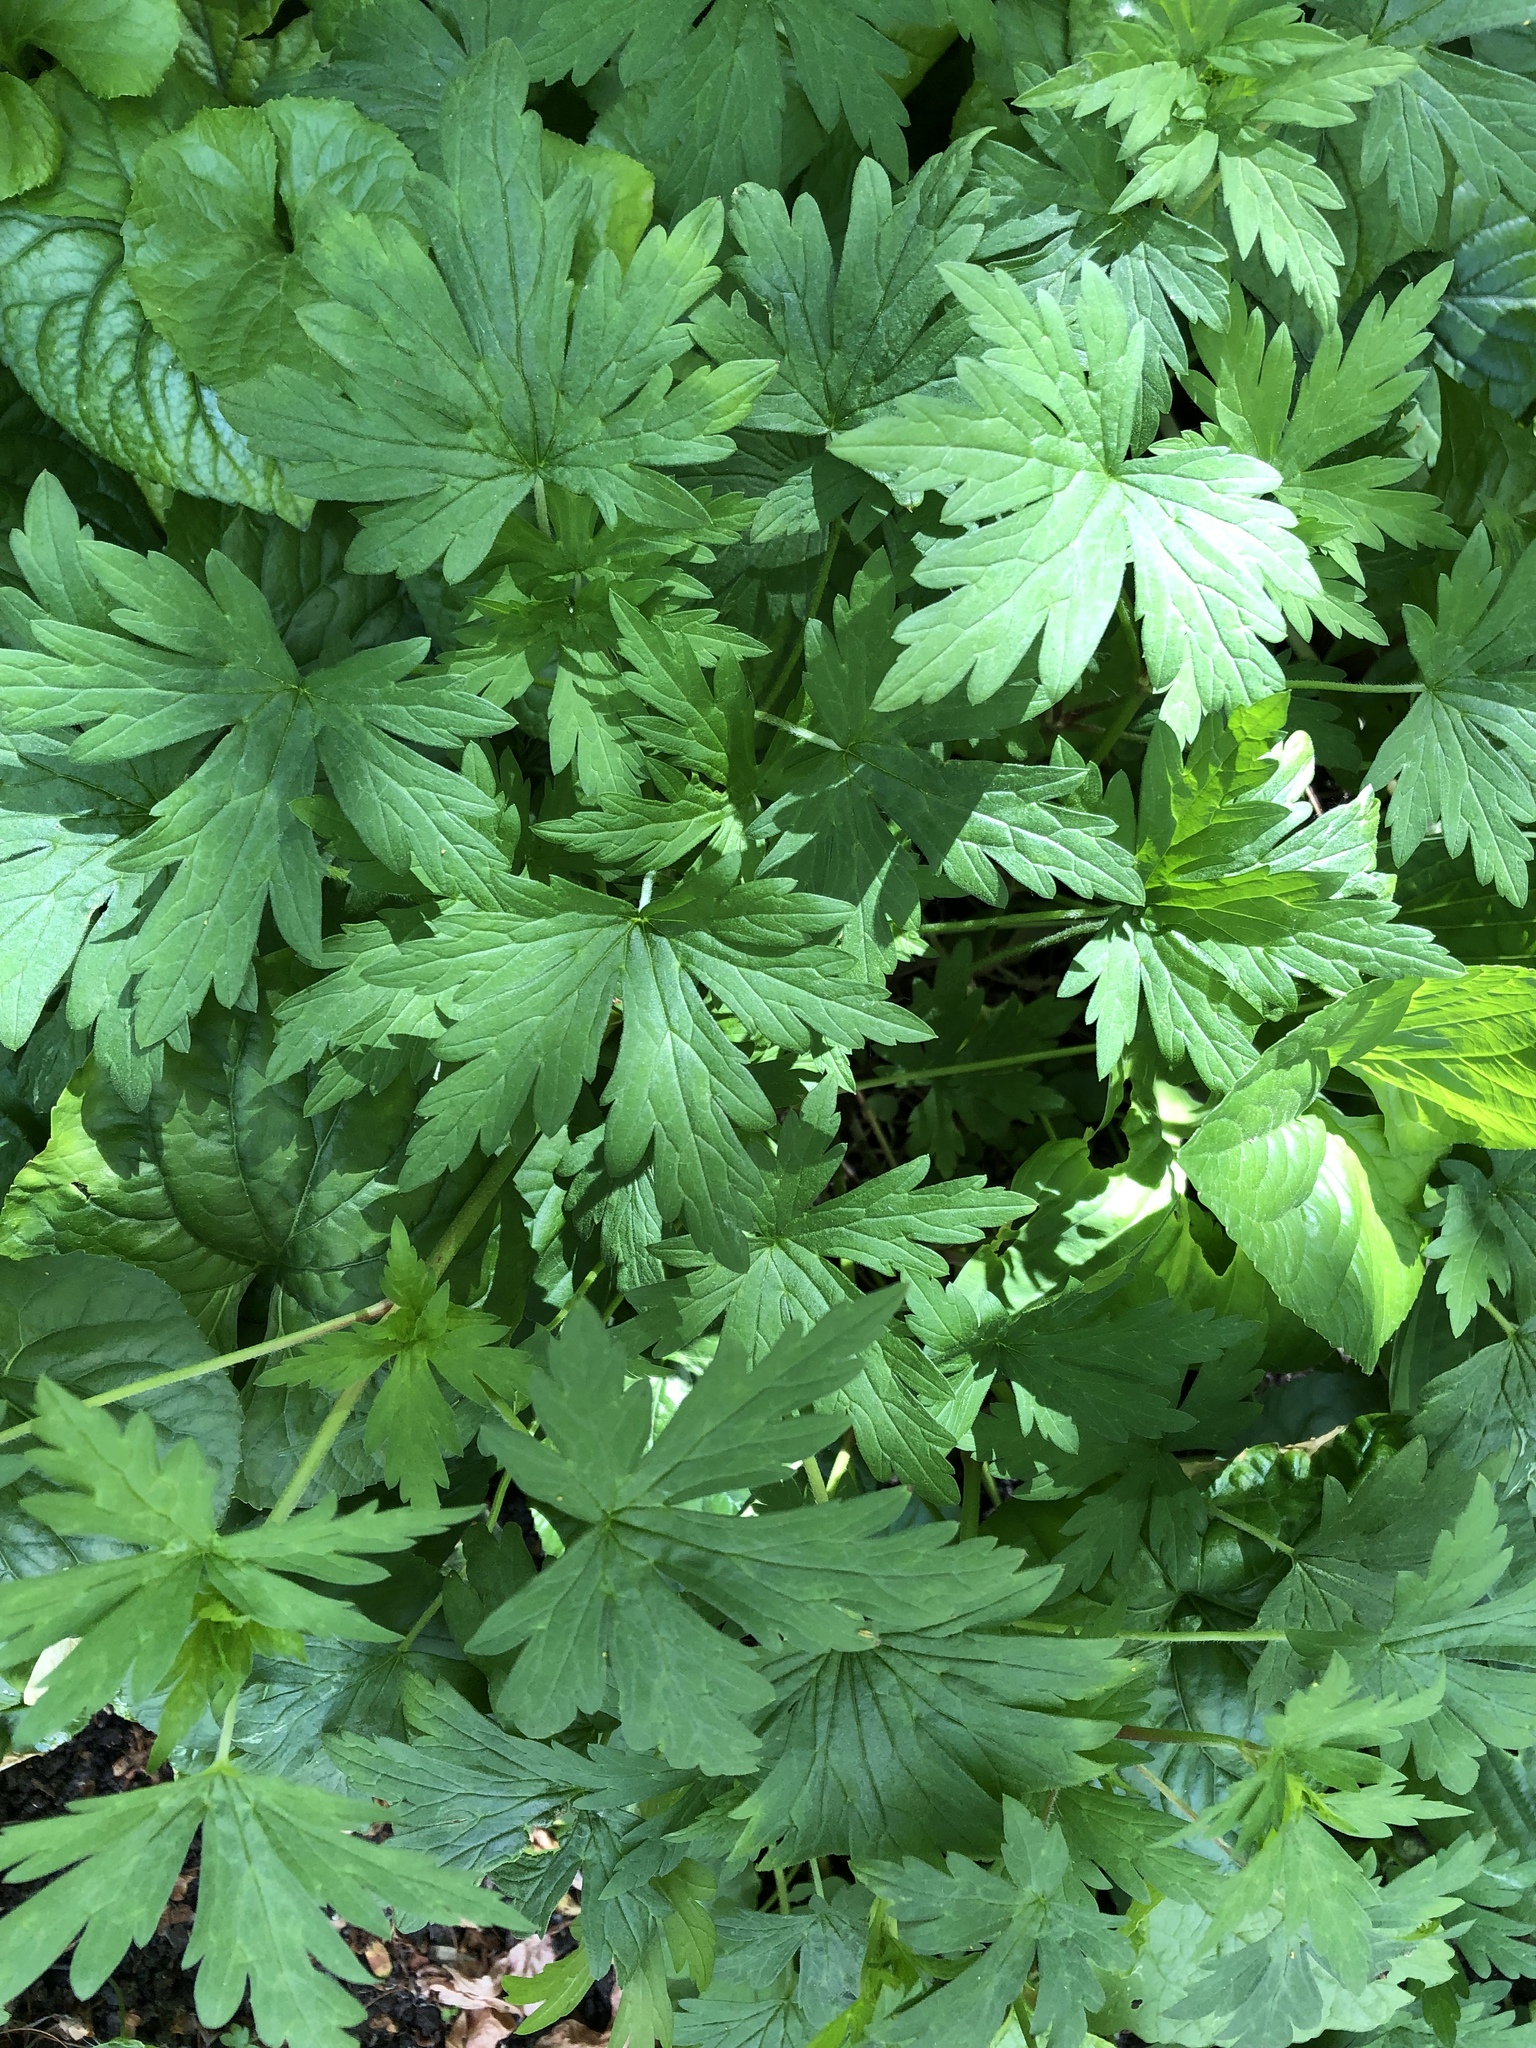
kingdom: Plantae
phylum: Tracheophyta
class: Magnoliopsida
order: Geraniales
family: Geraniaceae
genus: Geranium
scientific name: Geranium sibiricum
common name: Siberian crane's-bill
